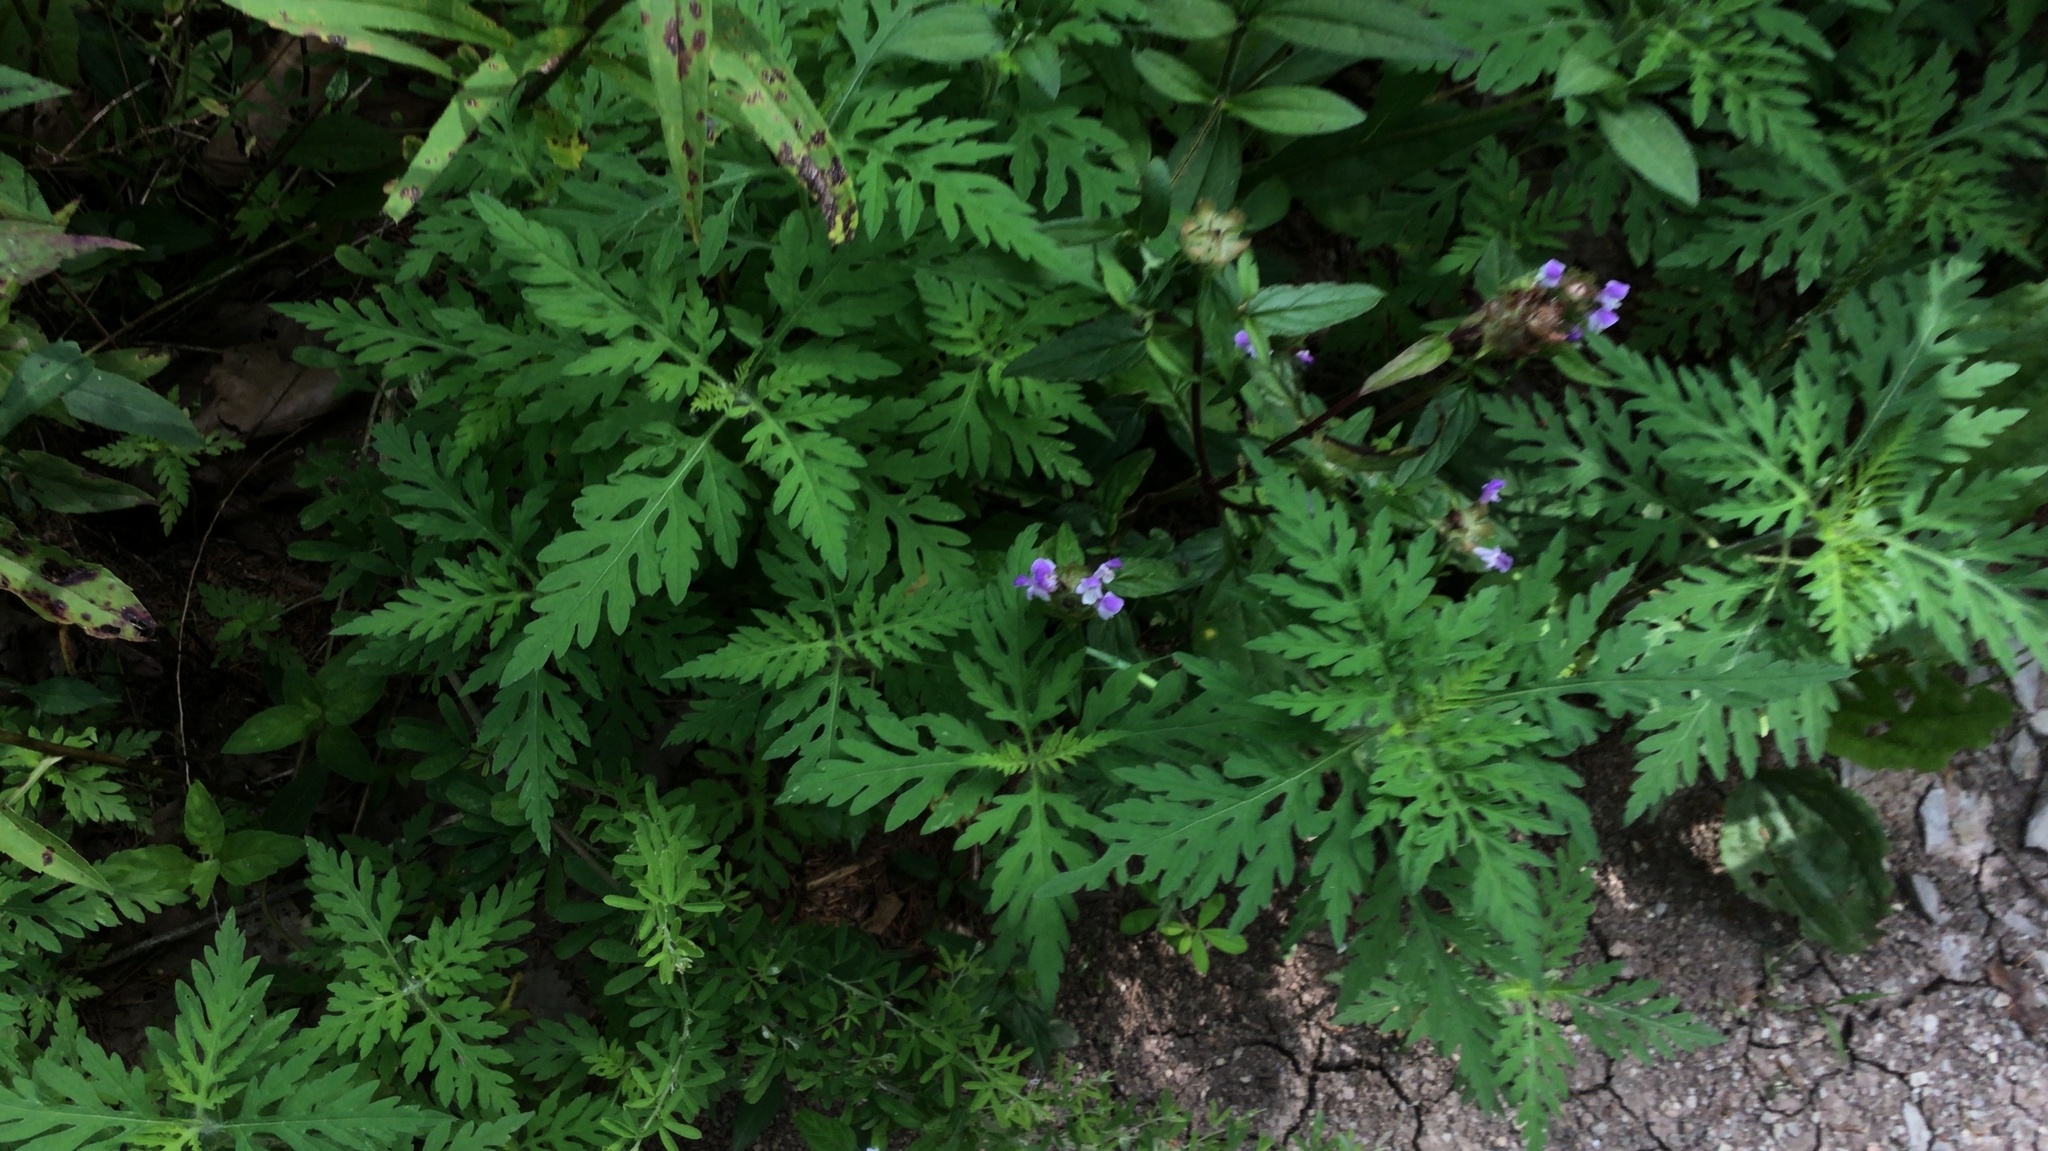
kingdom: Plantae
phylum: Tracheophyta
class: Magnoliopsida
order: Asterales
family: Asteraceae
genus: Ambrosia
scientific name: Ambrosia artemisiifolia
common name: Annual ragweed
